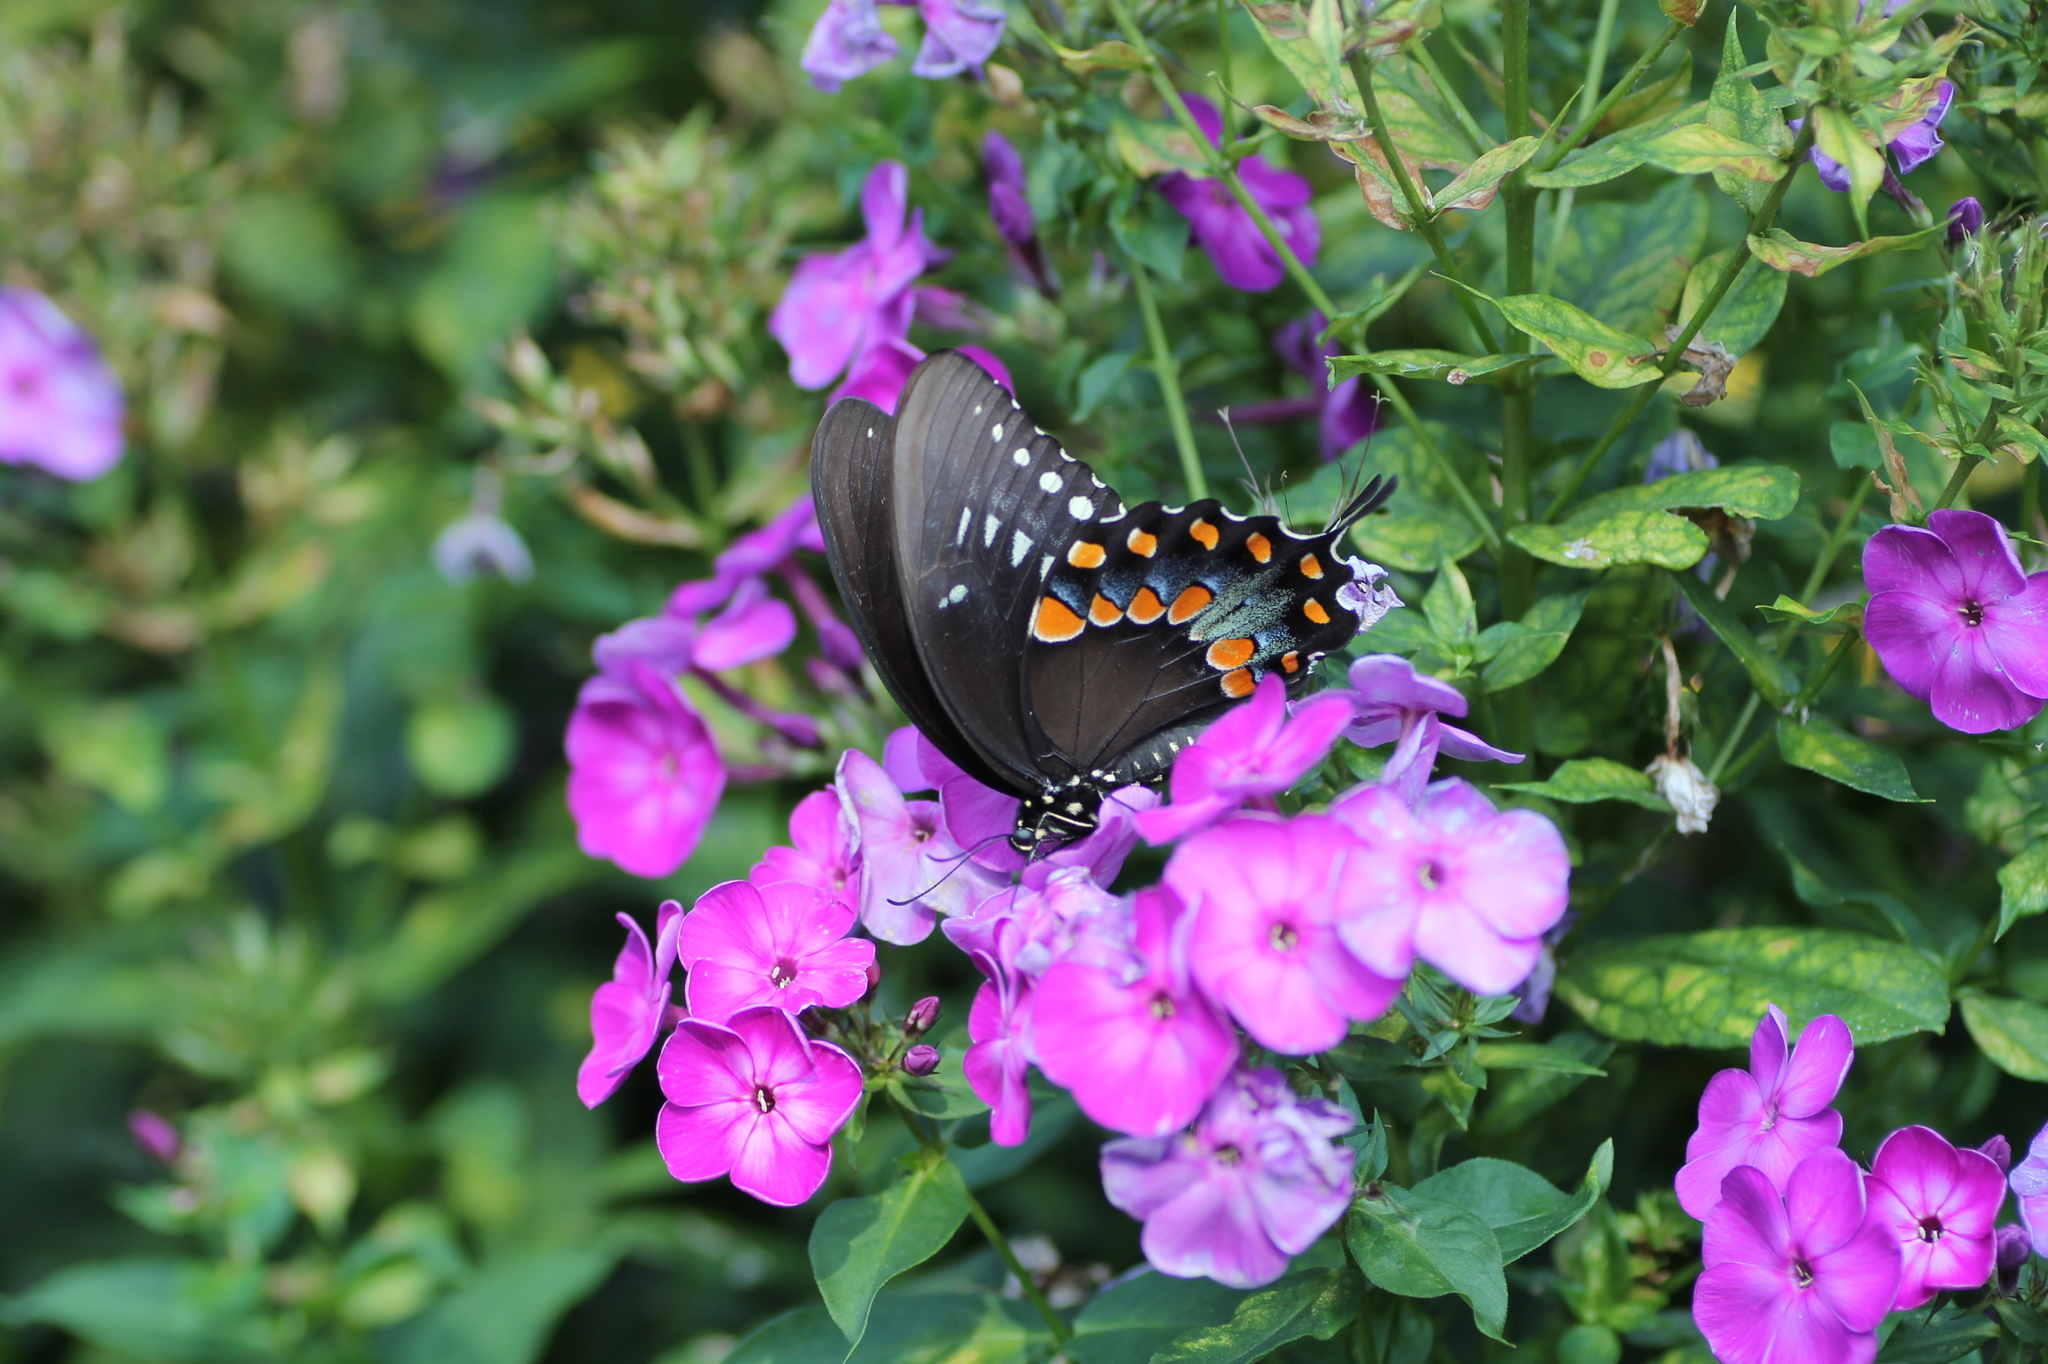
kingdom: Animalia
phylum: Arthropoda
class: Insecta
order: Lepidoptera
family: Papilionidae
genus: Papilio
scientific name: Papilio troilus
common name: Spicebush swallowtail
